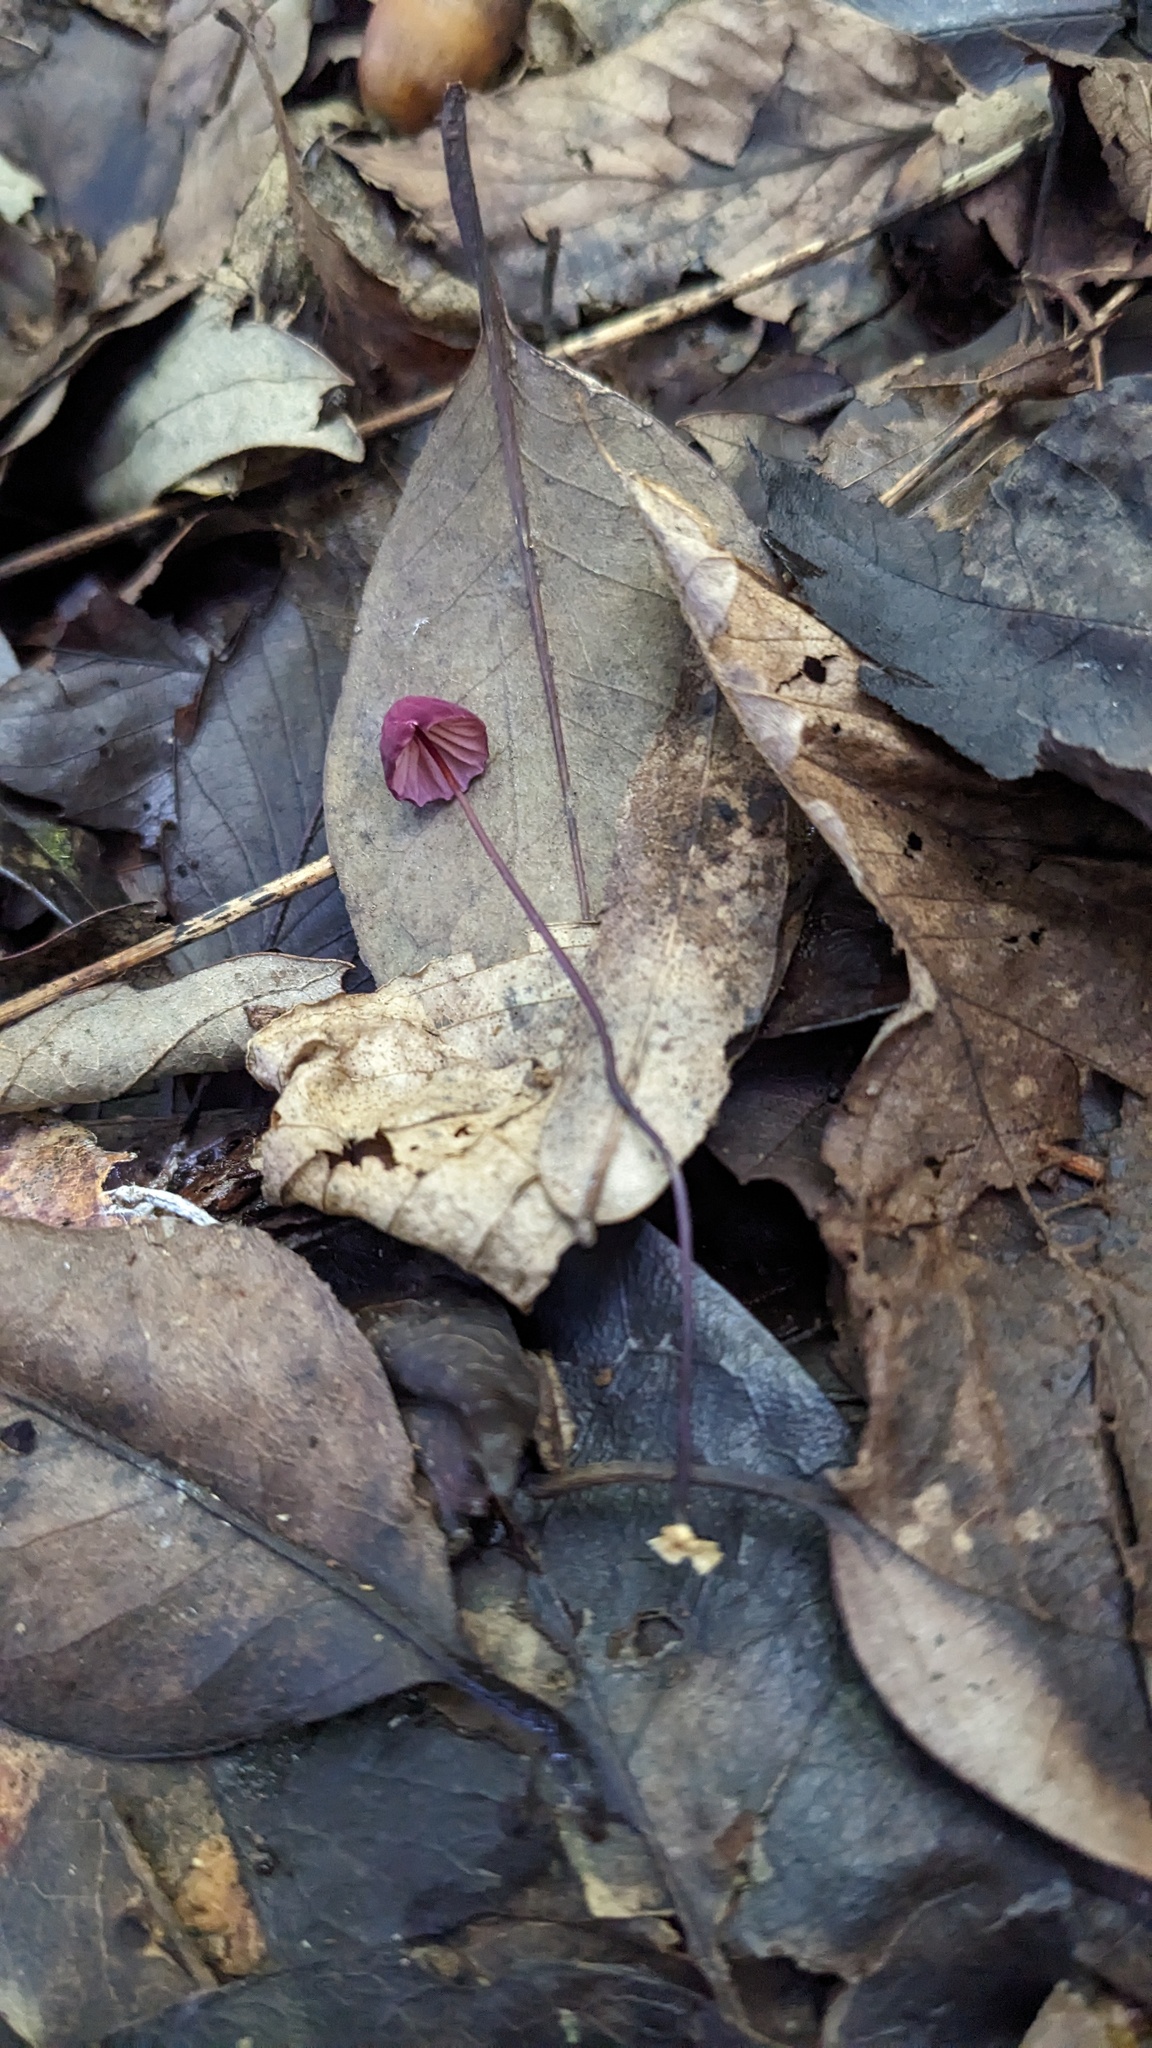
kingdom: Fungi
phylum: Basidiomycota
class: Agaricomycetes
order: Agaricales
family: Marasmiaceae
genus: Marasmius
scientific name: Marasmius pulcherripes
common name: Rosy parachute
